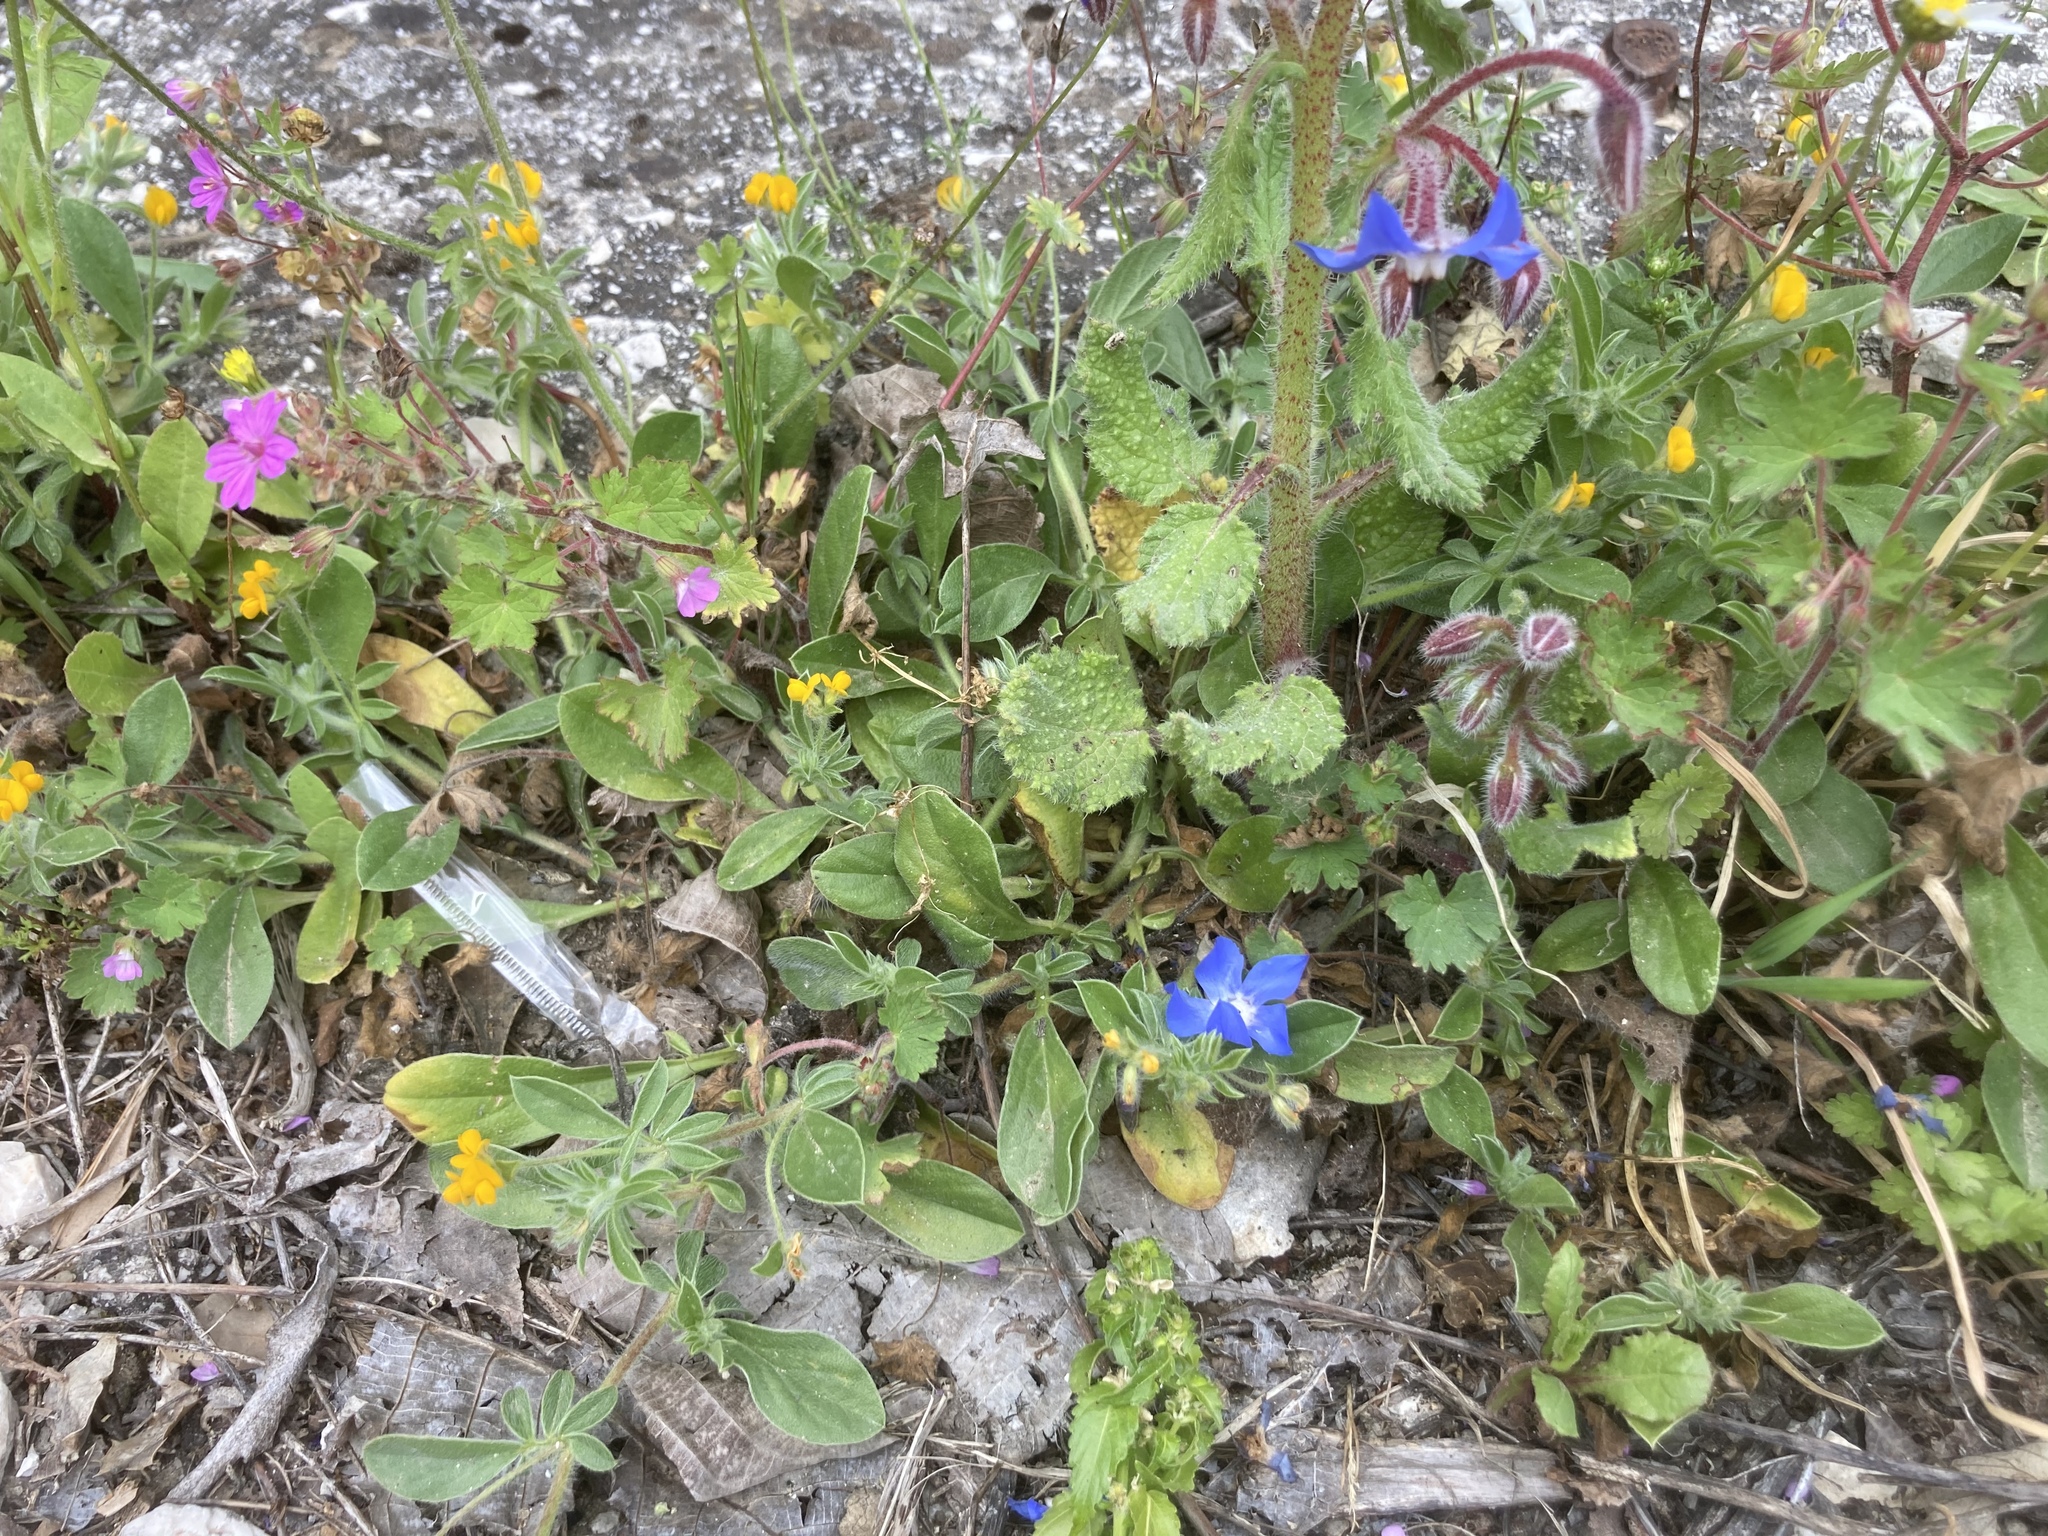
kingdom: Plantae
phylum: Tracheophyta
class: Magnoliopsida
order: Fabales
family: Fabaceae
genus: Anthyllis
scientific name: Anthyllis circinnata
